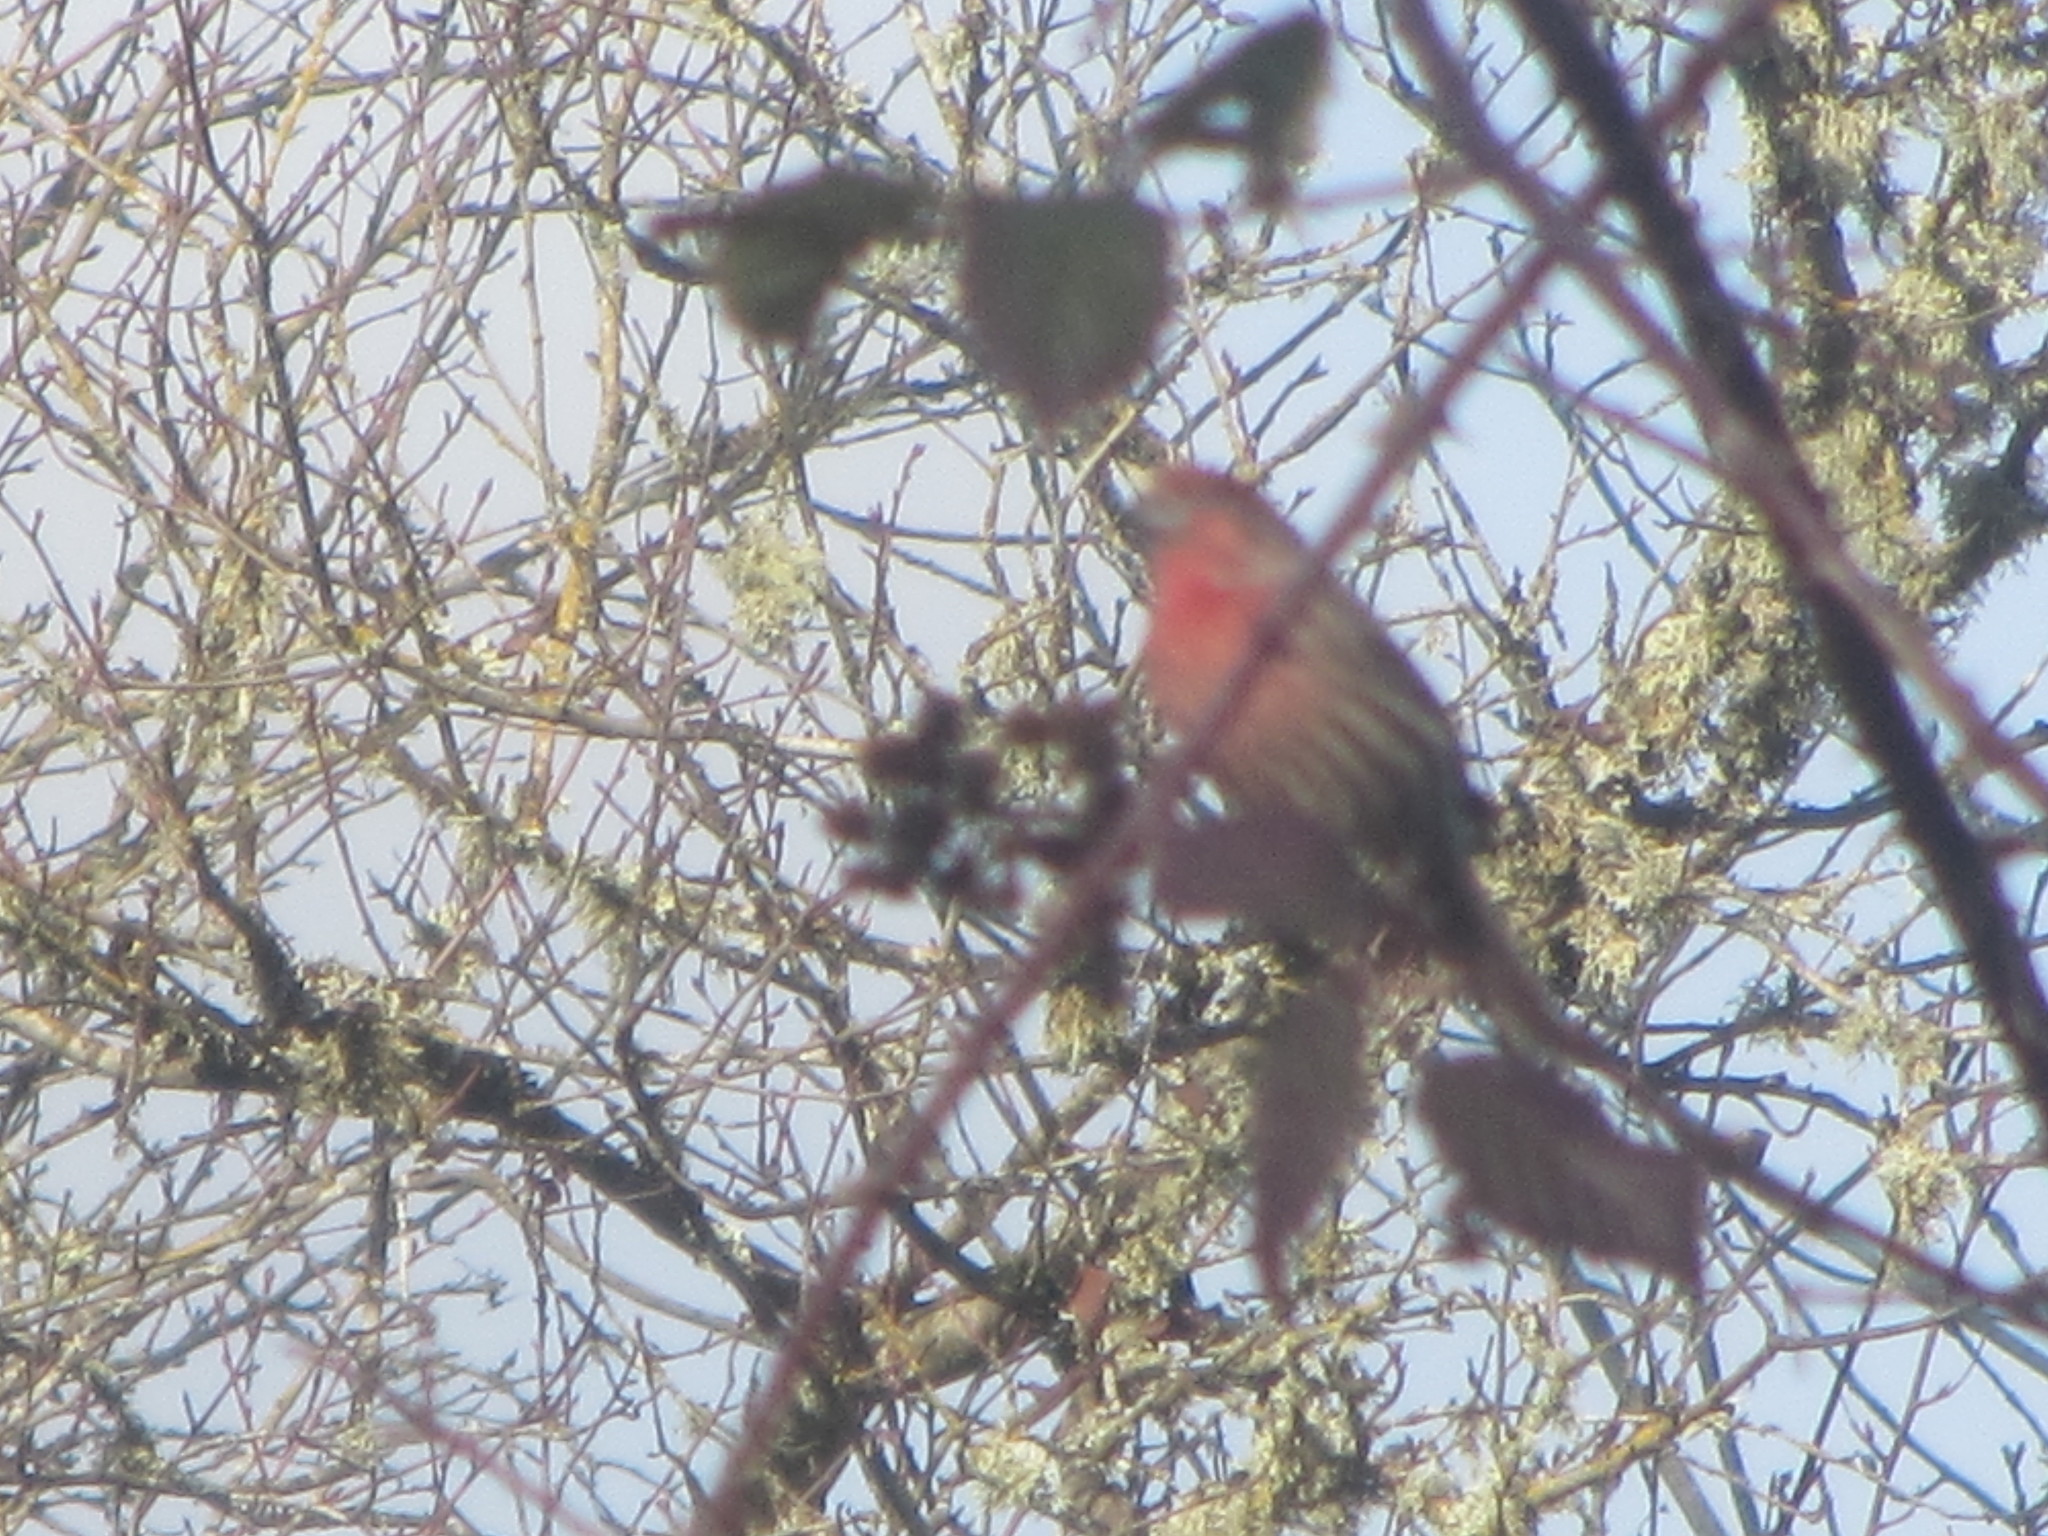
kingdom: Animalia
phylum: Chordata
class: Aves
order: Passeriformes
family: Fringillidae
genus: Haemorhous
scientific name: Haemorhous mexicanus
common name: House finch
